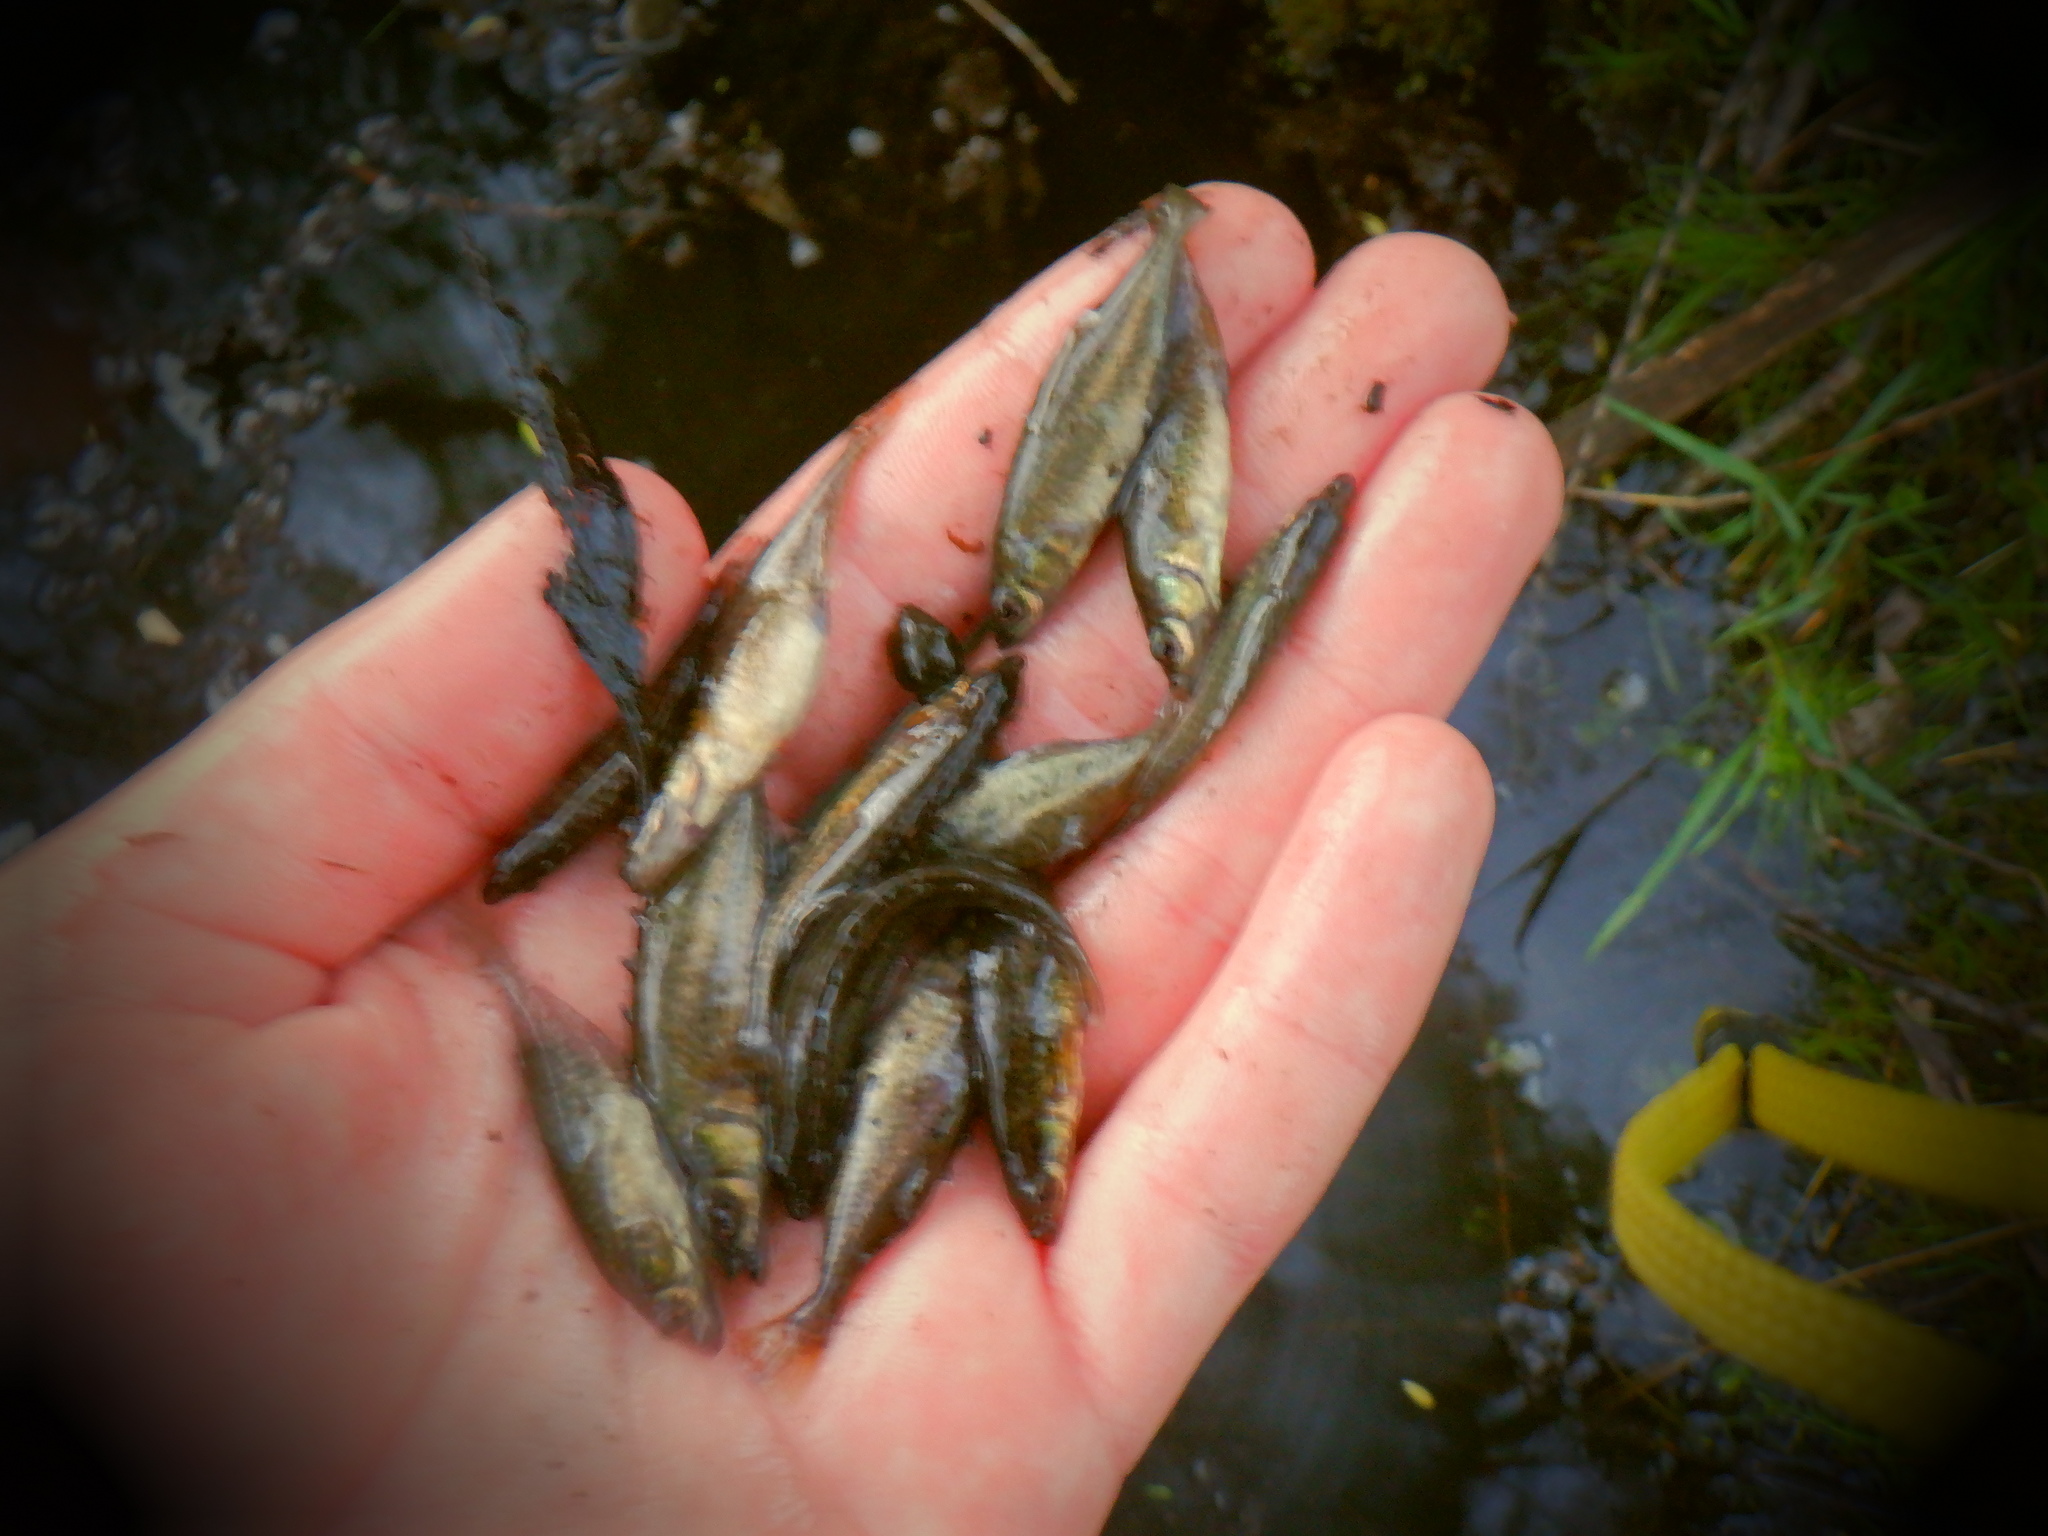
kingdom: Animalia
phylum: Chordata
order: Gasterosteiformes
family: Gasterosteidae
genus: Culaea
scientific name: Culaea inconstans
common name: Brook stickleback
